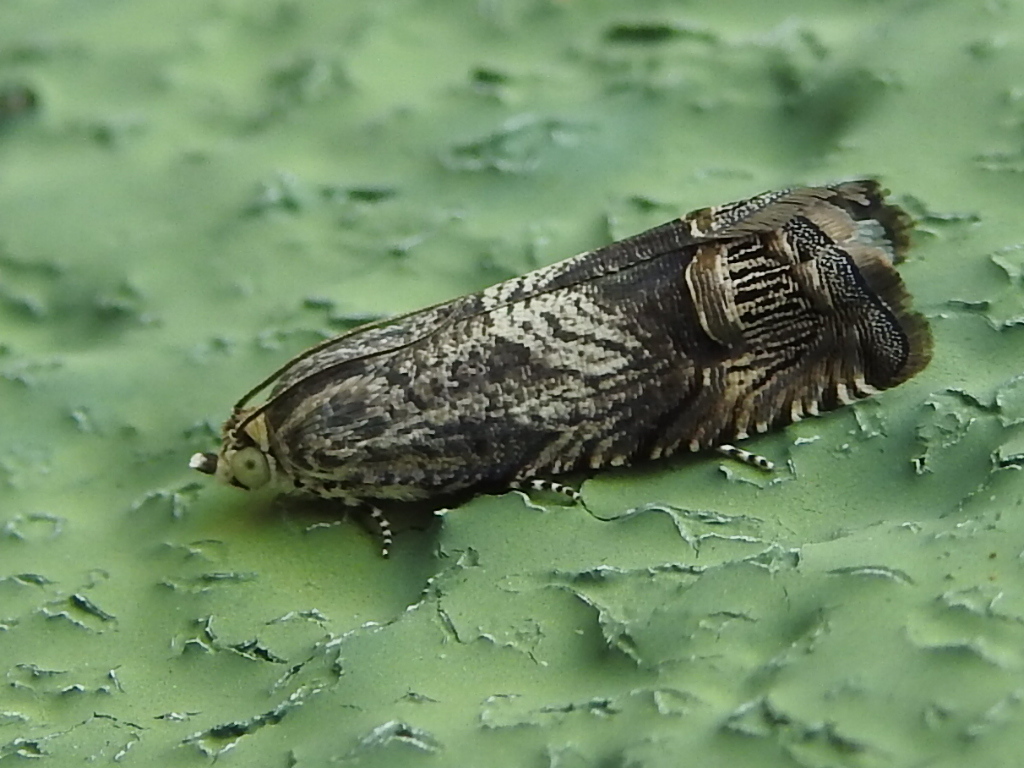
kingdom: Animalia
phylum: Arthropoda
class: Insecta
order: Lepidoptera
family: Tortricidae
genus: Ofatulena
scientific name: Ofatulena duodecemstriata
